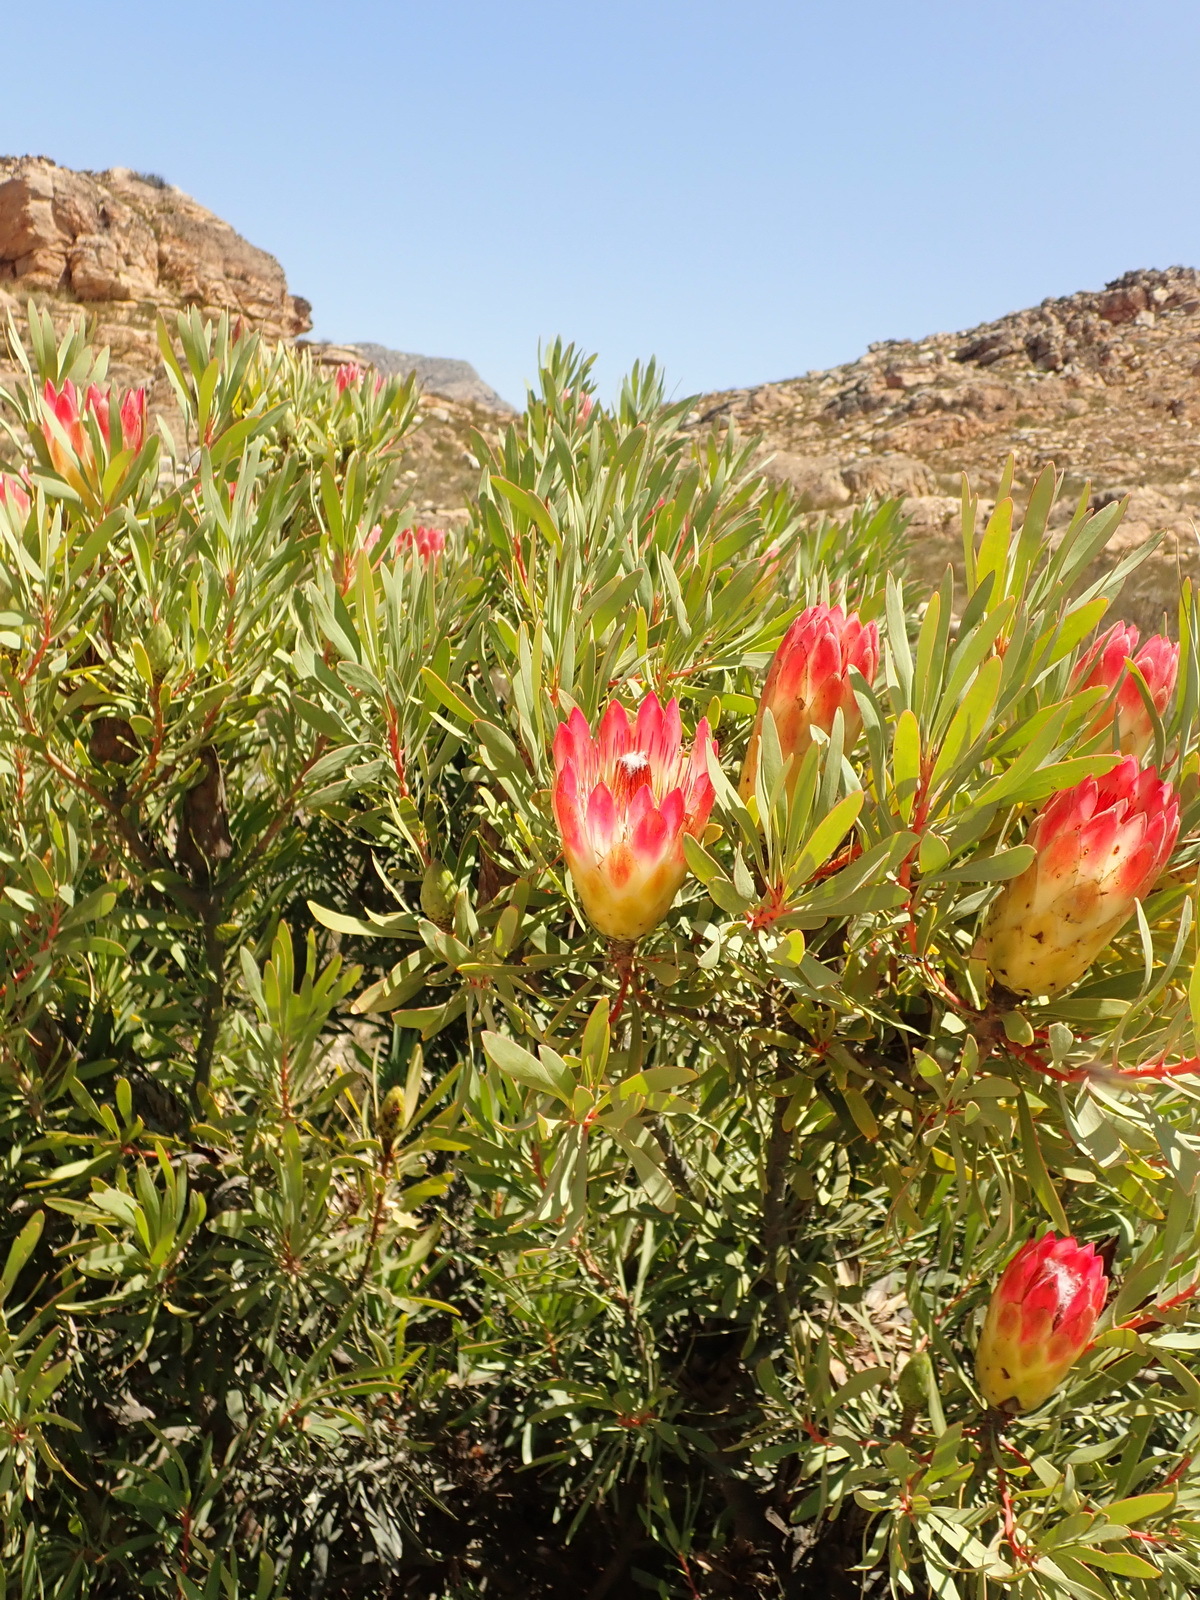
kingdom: Plantae
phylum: Tracheophyta
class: Magnoliopsida
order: Proteales
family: Proteaceae
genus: Protea
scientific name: Protea repens
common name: Sugarbush
